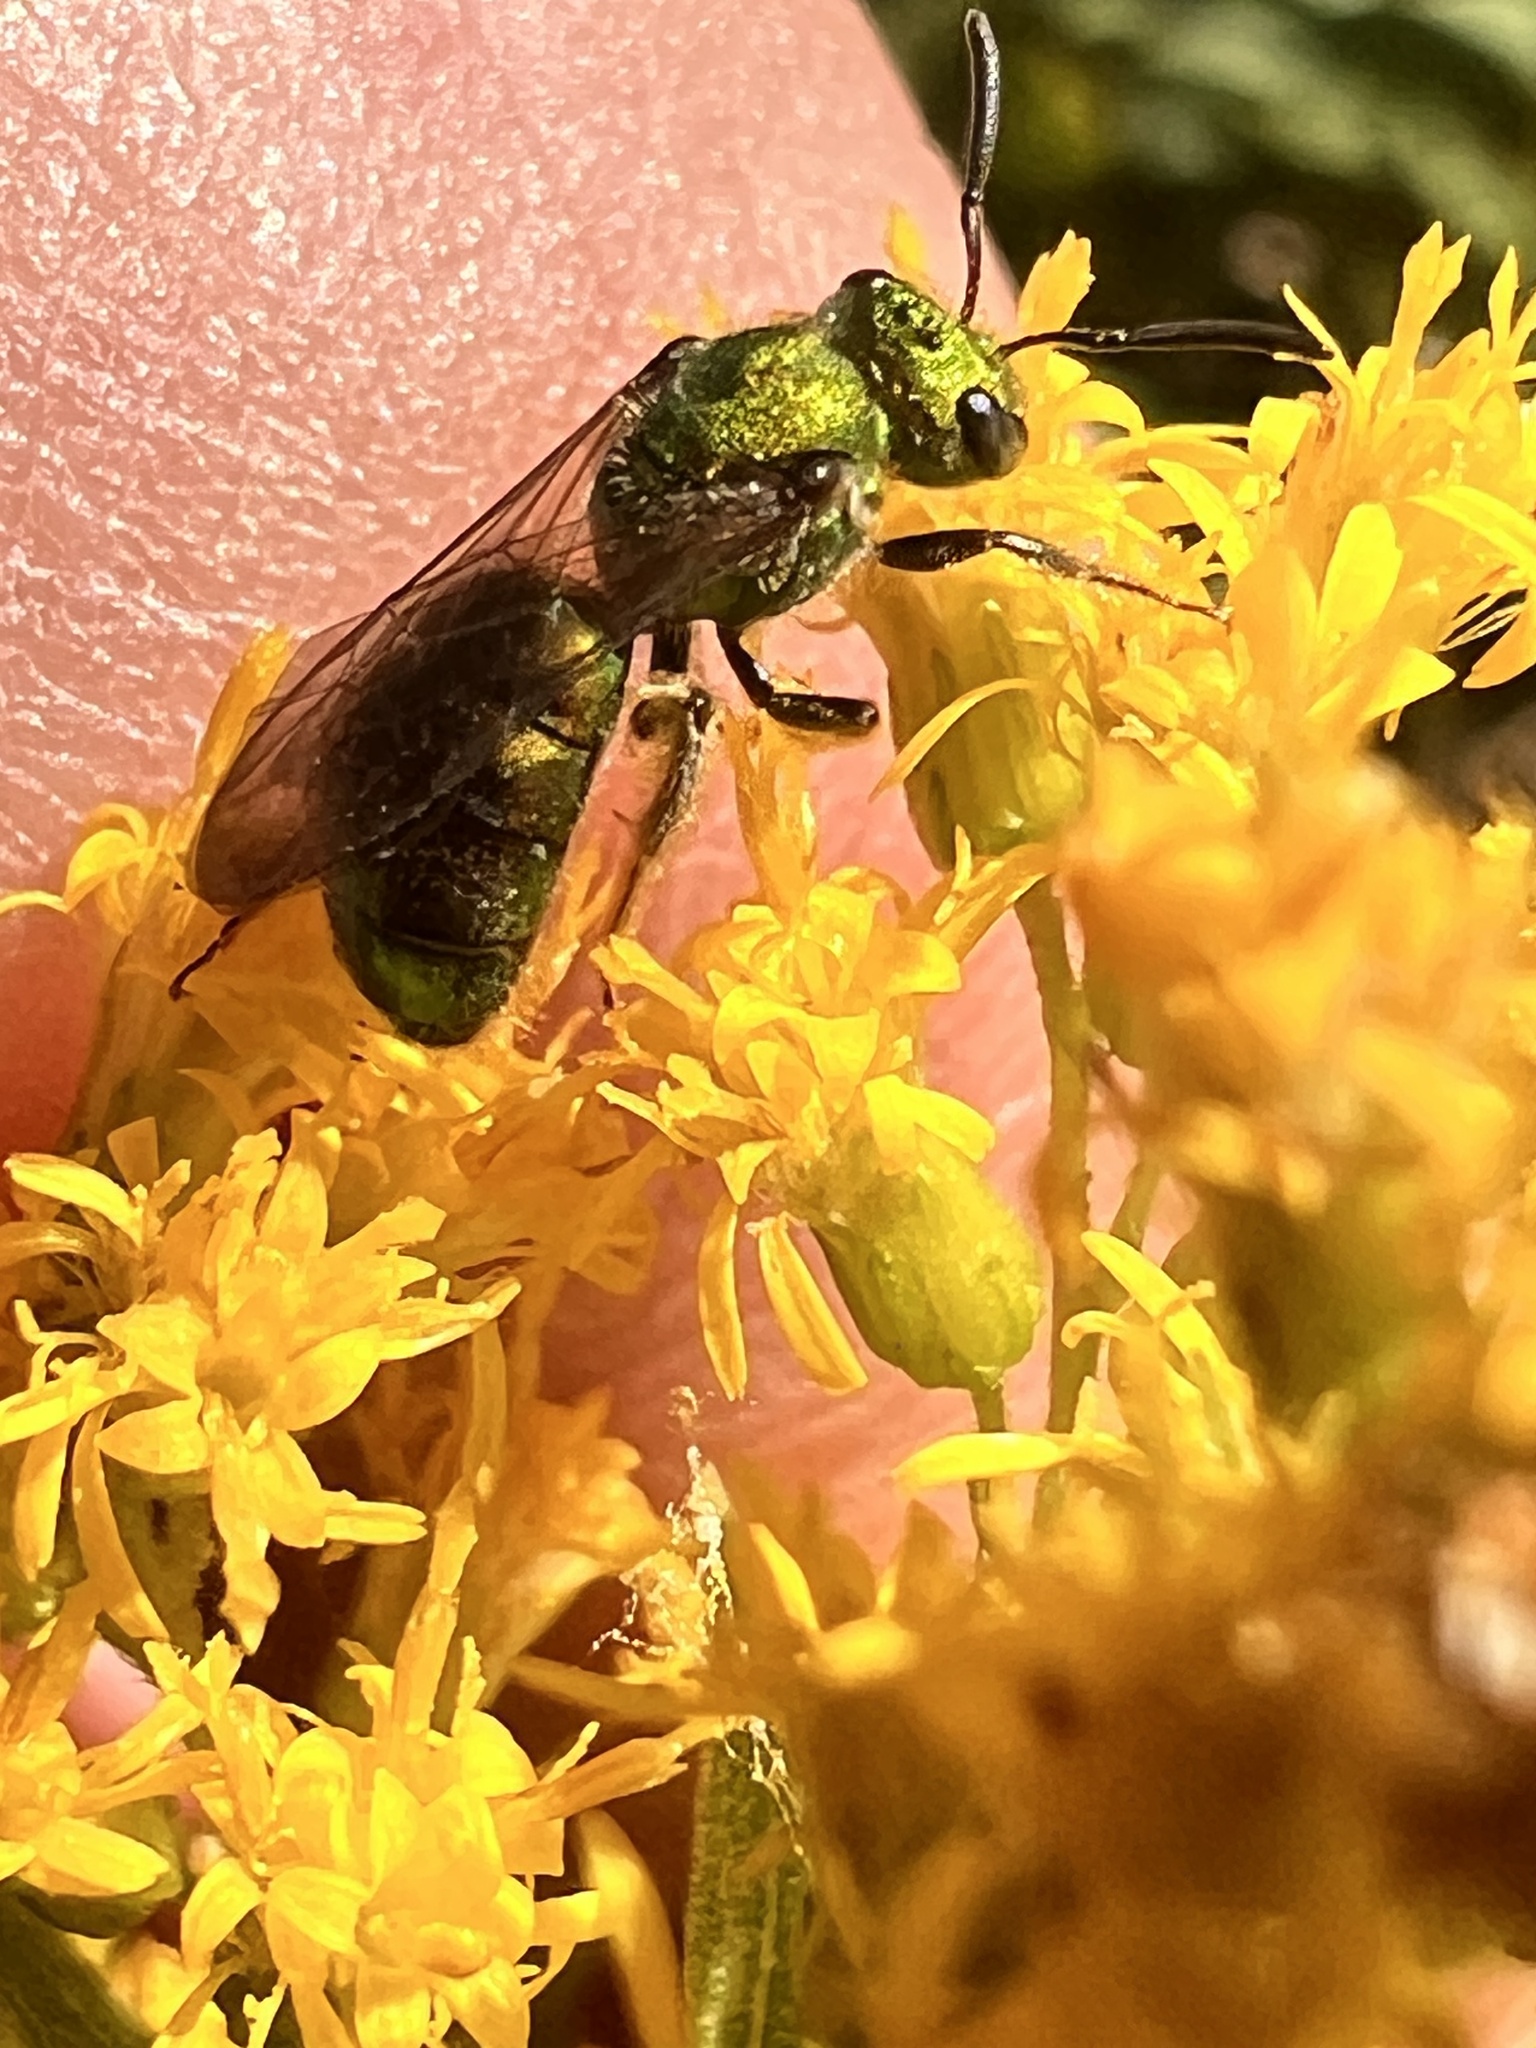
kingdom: Animalia
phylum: Arthropoda
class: Insecta
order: Hymenoptera
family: Halictidae
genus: Augochlora
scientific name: Augochlora pura
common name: Pure green sweat bee
